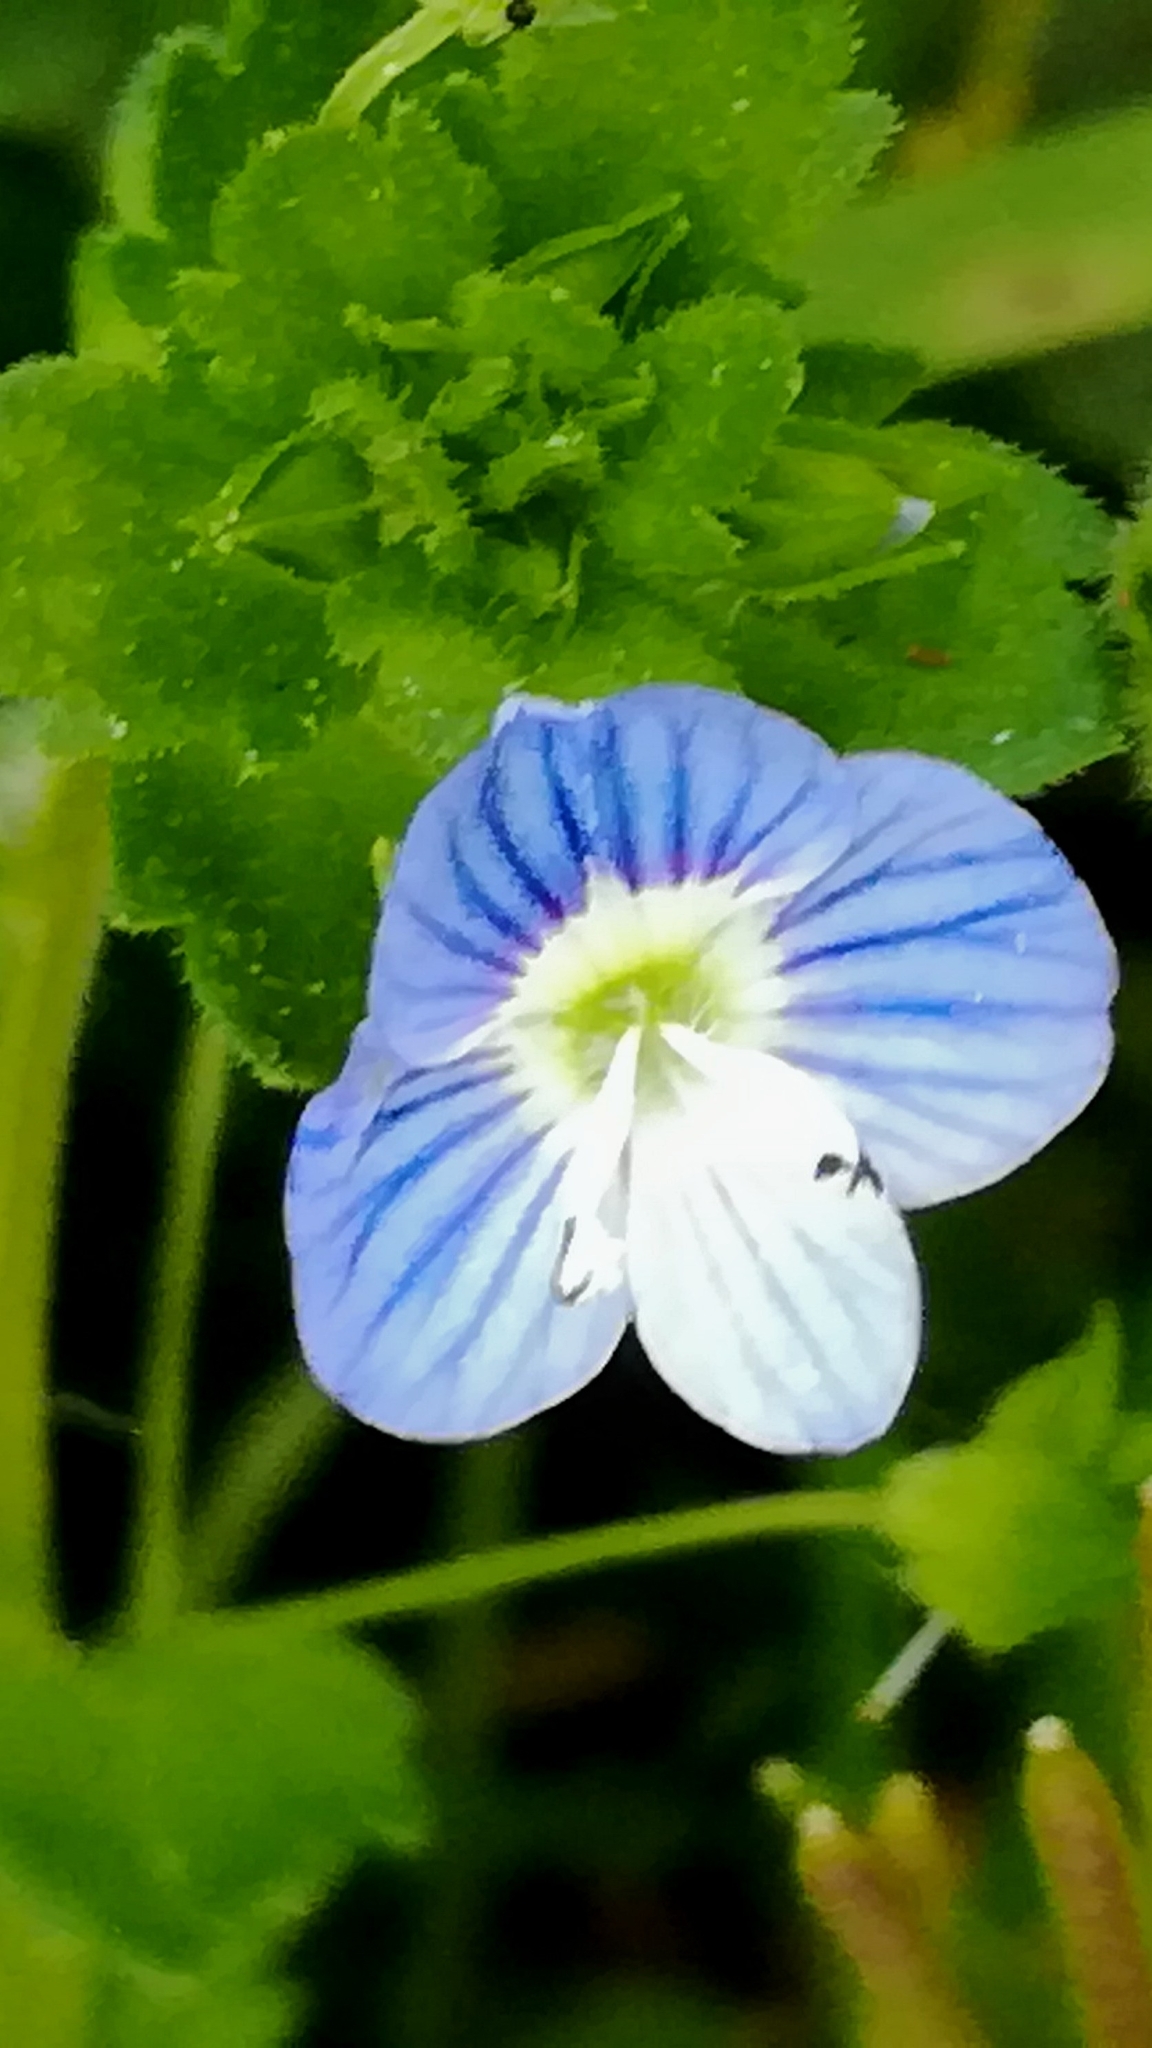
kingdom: Plantae
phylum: Tracheophyta
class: Magnoliopsida
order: Lamiales
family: Plantaginaceae
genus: Veronica
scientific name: Veronica persica
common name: Common field-speedwell
